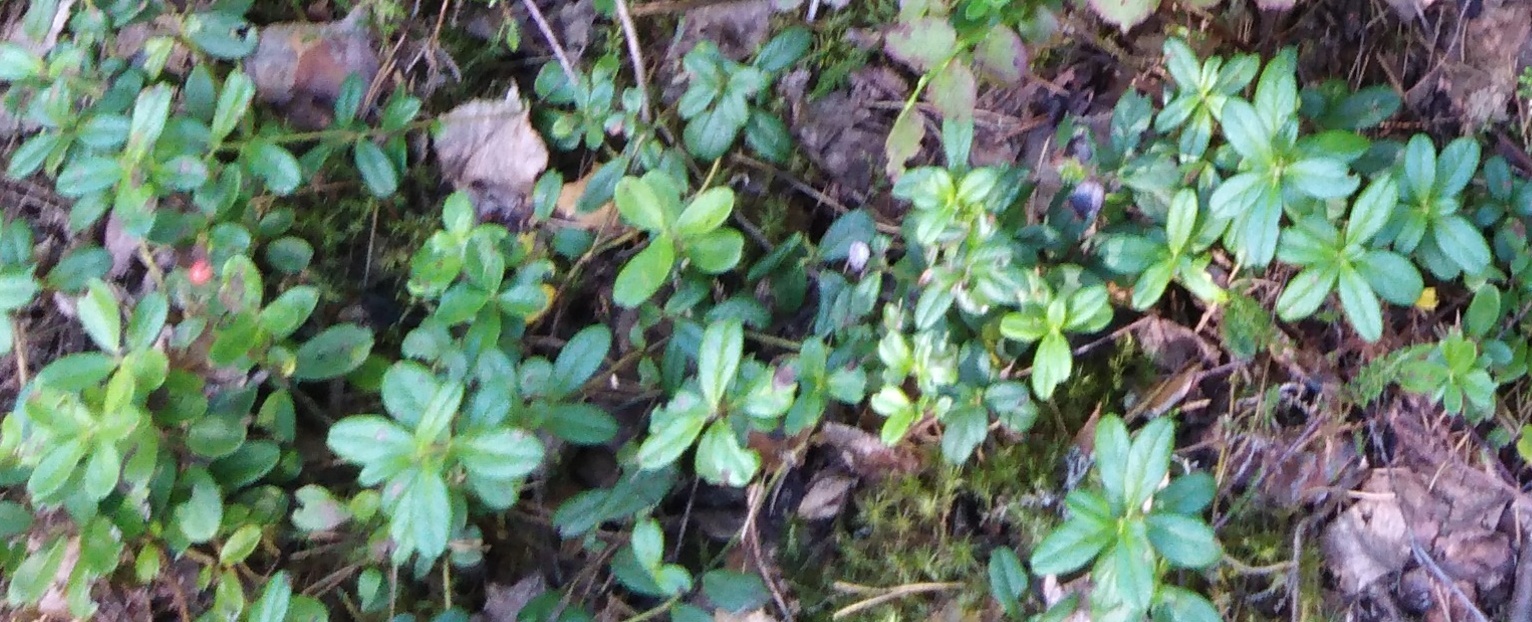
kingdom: Plantae
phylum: Tracheophyta
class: Magnoliopsida
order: Ericales
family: Ericaceae
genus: Vaccinium
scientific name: Vaccinium vitis-idaea
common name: Cowberry
